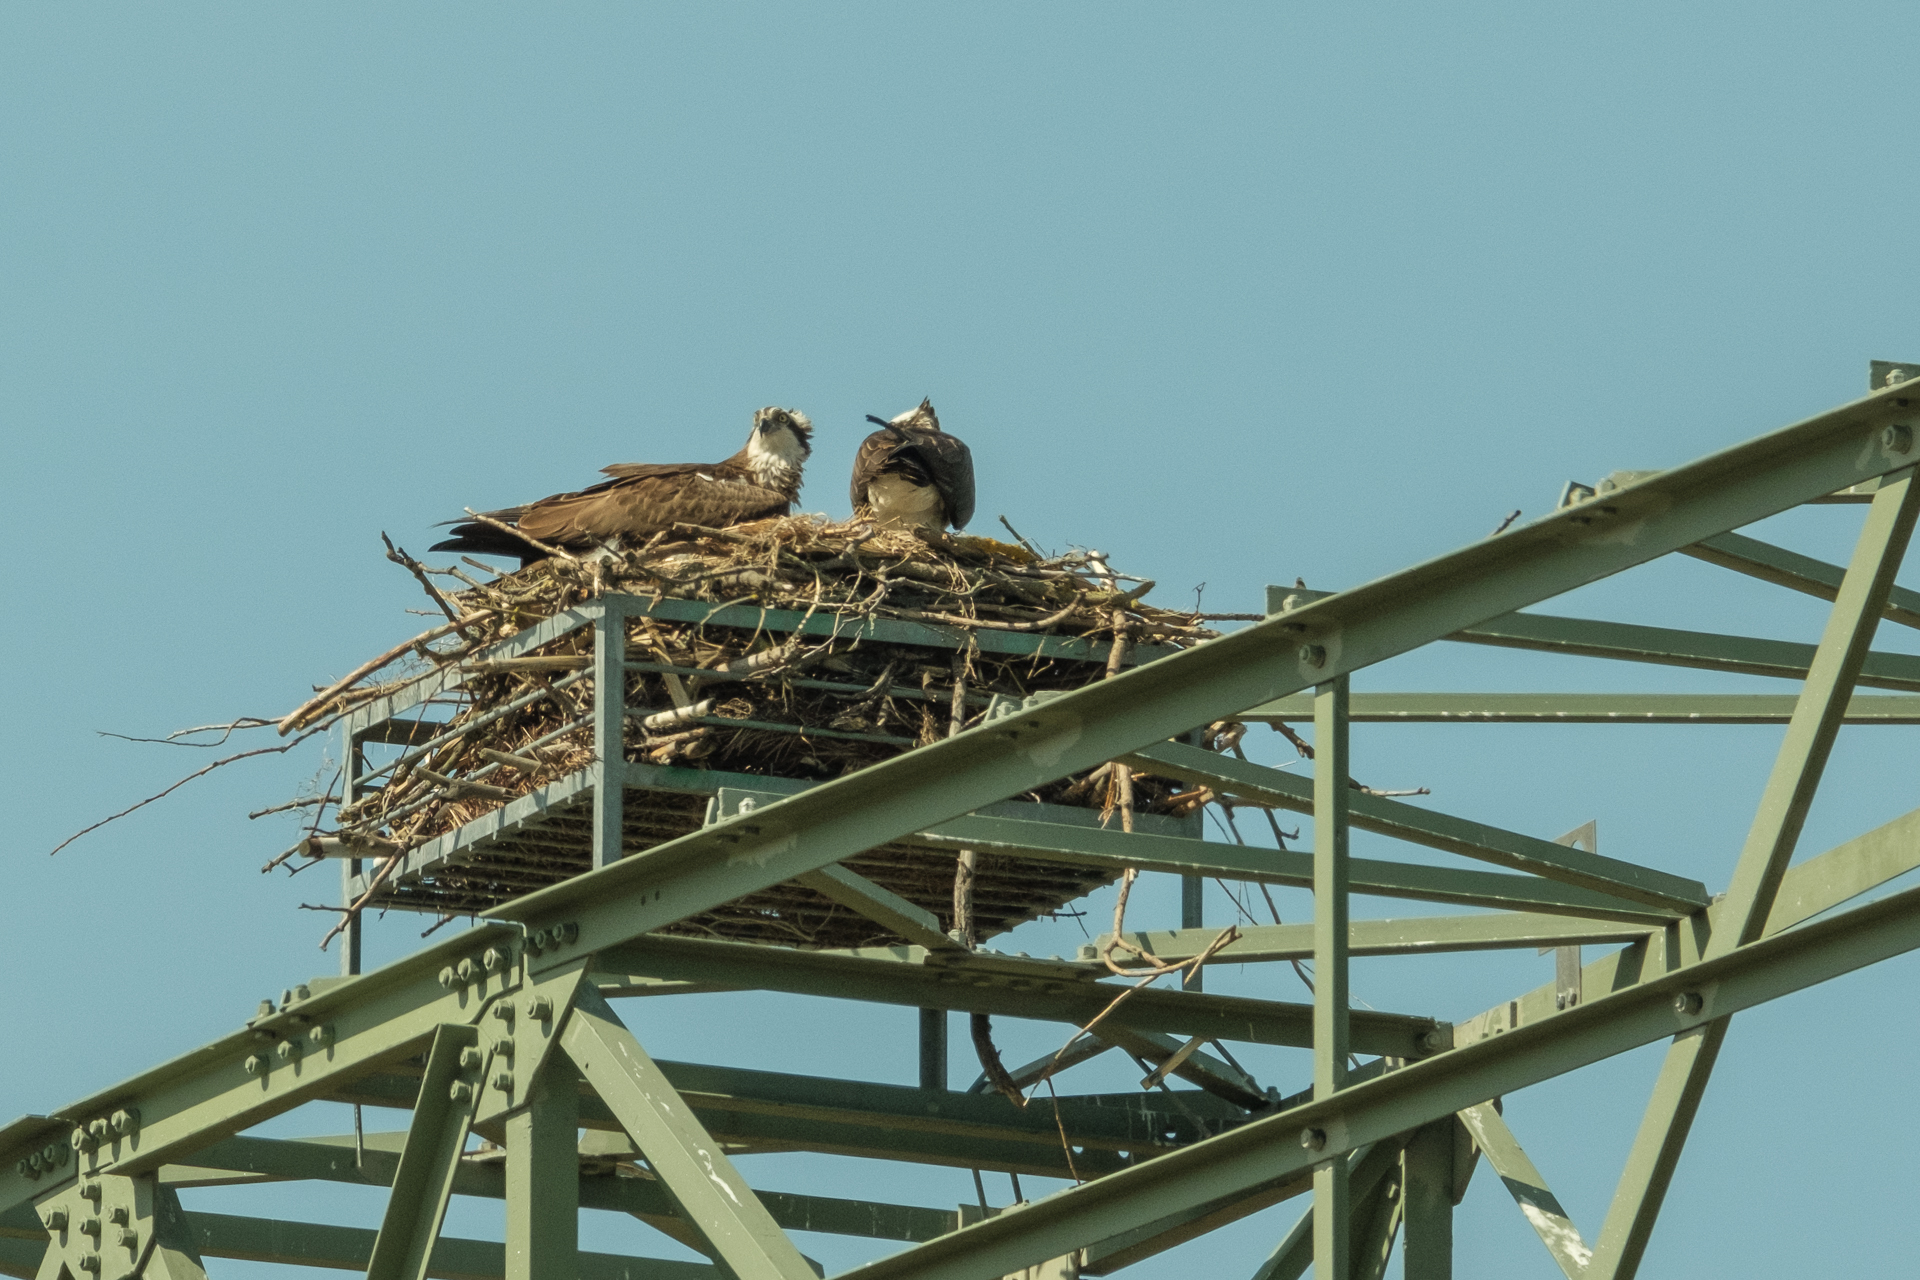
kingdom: Animalia
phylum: Chordata
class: Aves
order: Accipitriformes
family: Pandionidae
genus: Pandion
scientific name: Pandion haliaetus
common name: Osprey
